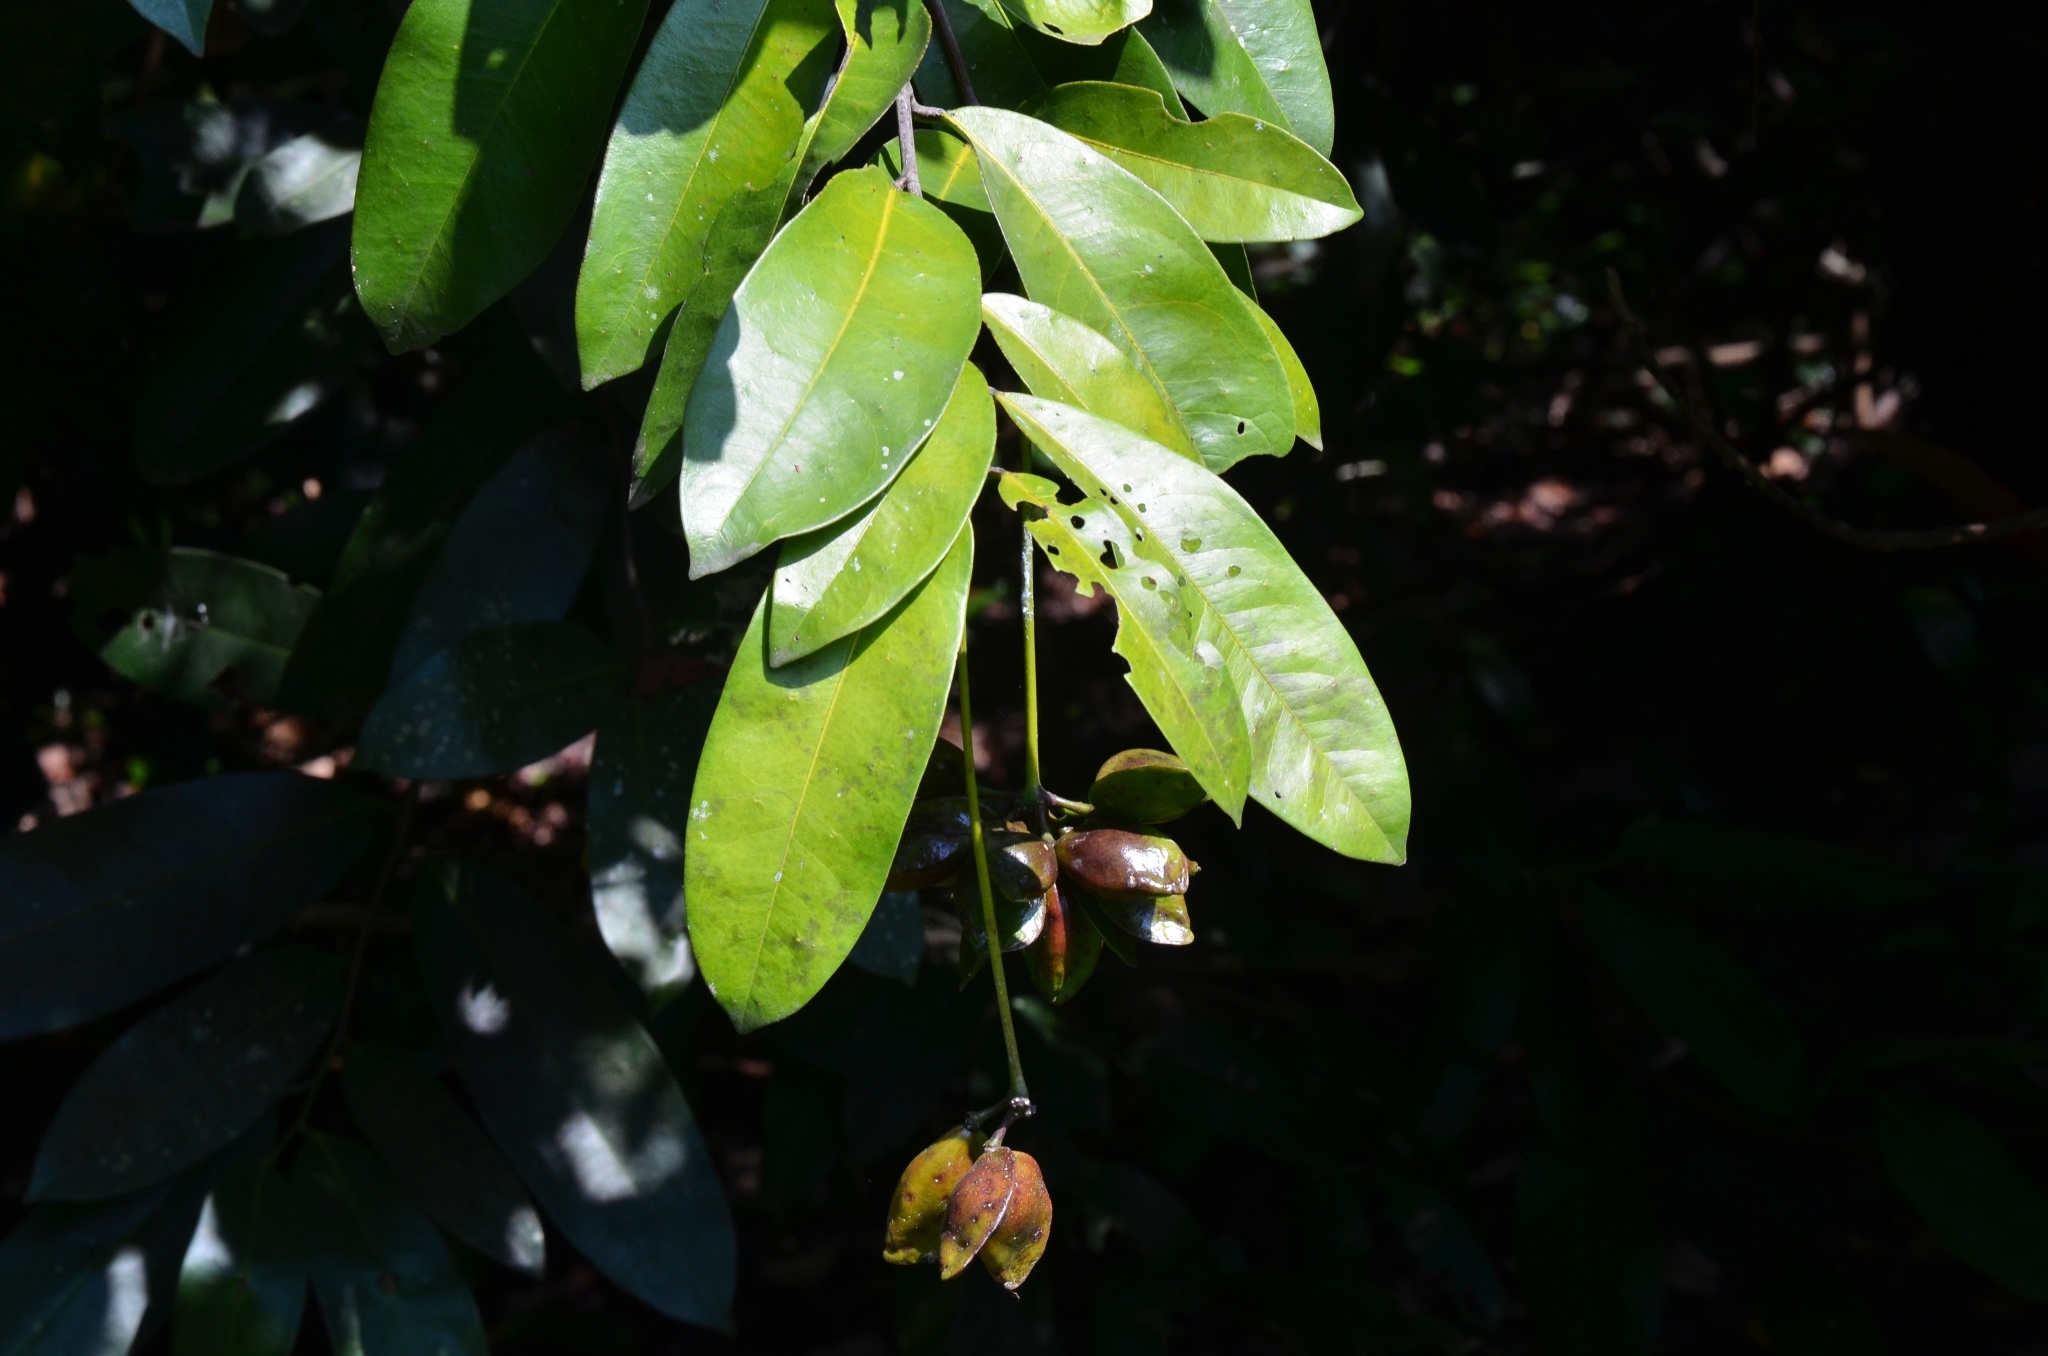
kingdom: Plantae
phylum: Tracheophyta
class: Magnoliopsida
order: Sapindales
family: Simaroubaceae
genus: Samadera
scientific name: Samadera indica
